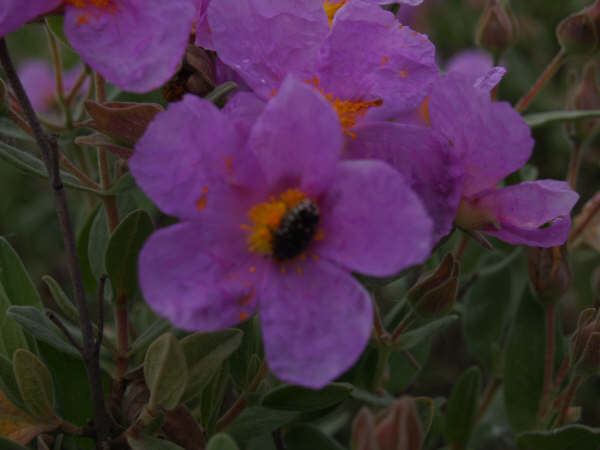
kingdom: Animalia
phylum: Arthropoda
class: Insecta
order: Coleoptera
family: Scarabaeidae
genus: Oxythyrea
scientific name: Oxythyrea funesta
